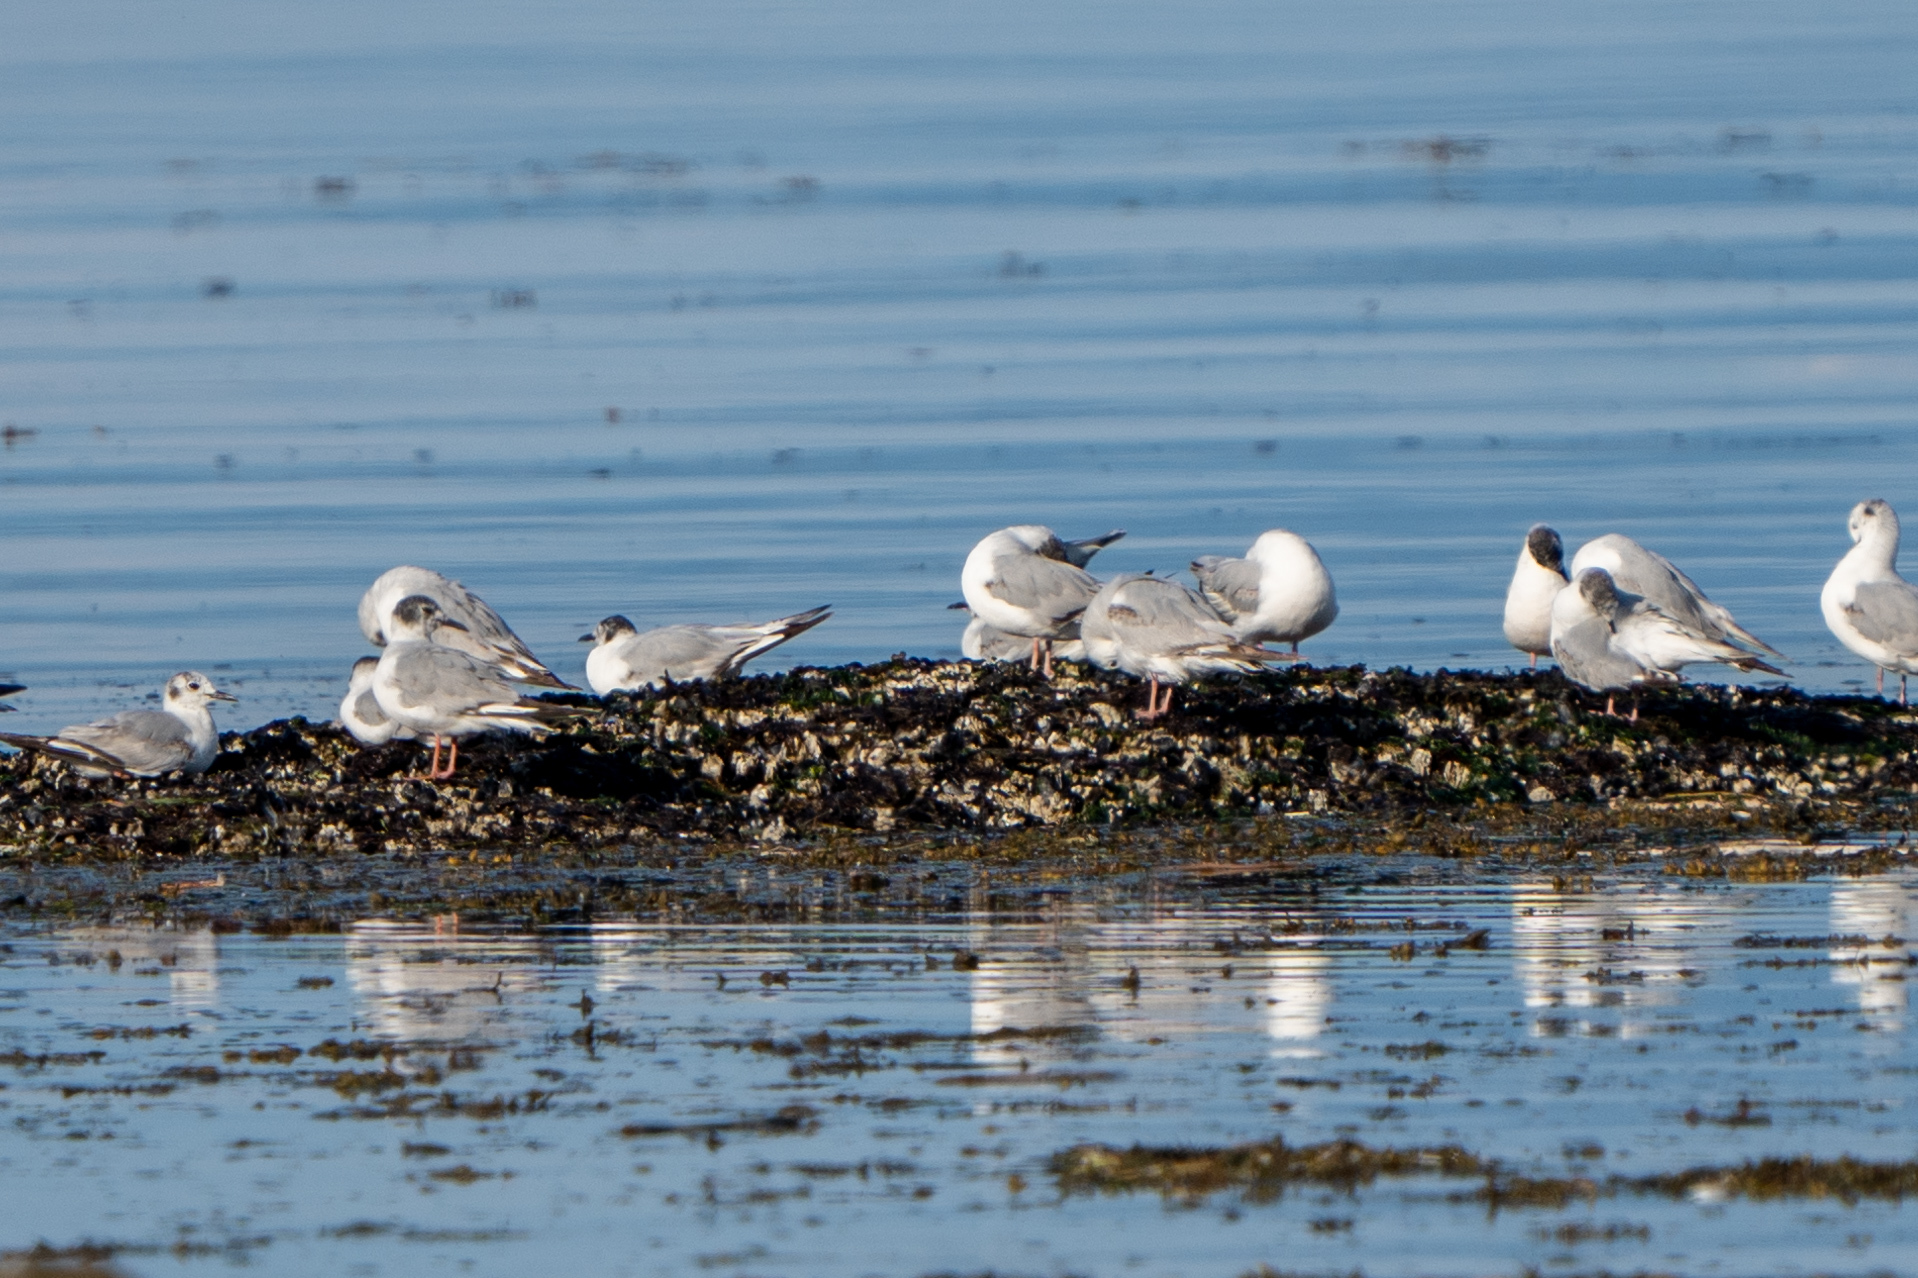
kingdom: Animalia
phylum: Chordata
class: Aves
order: Charadriiformes
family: Laridae
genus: Chroicocephalus
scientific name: Chroicocephalus philadelphia
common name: Bonaparte's gull
